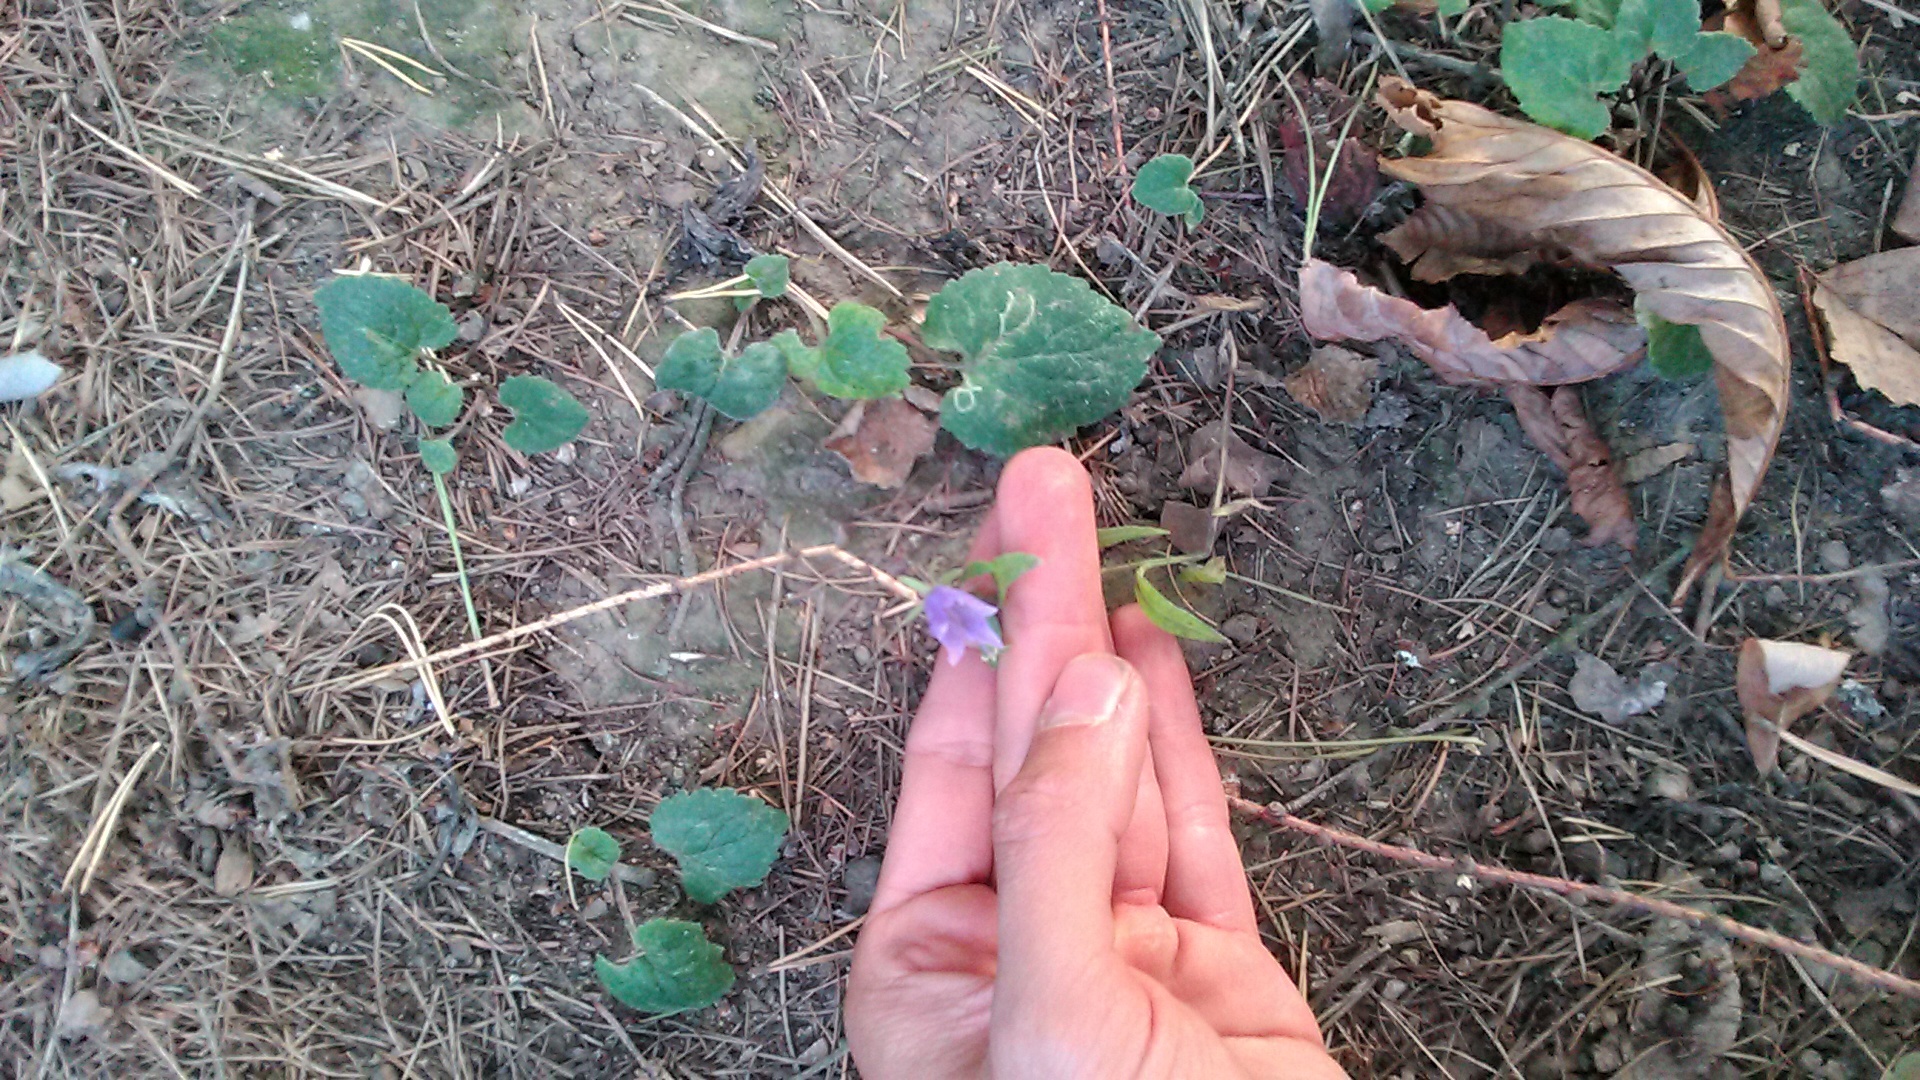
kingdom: Plantae
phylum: Tracheophyta
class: Magnoliopsida
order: Asterales
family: Campanulaceae
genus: Campanula
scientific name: Campanula rapunculoides
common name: Creeping bellflower
